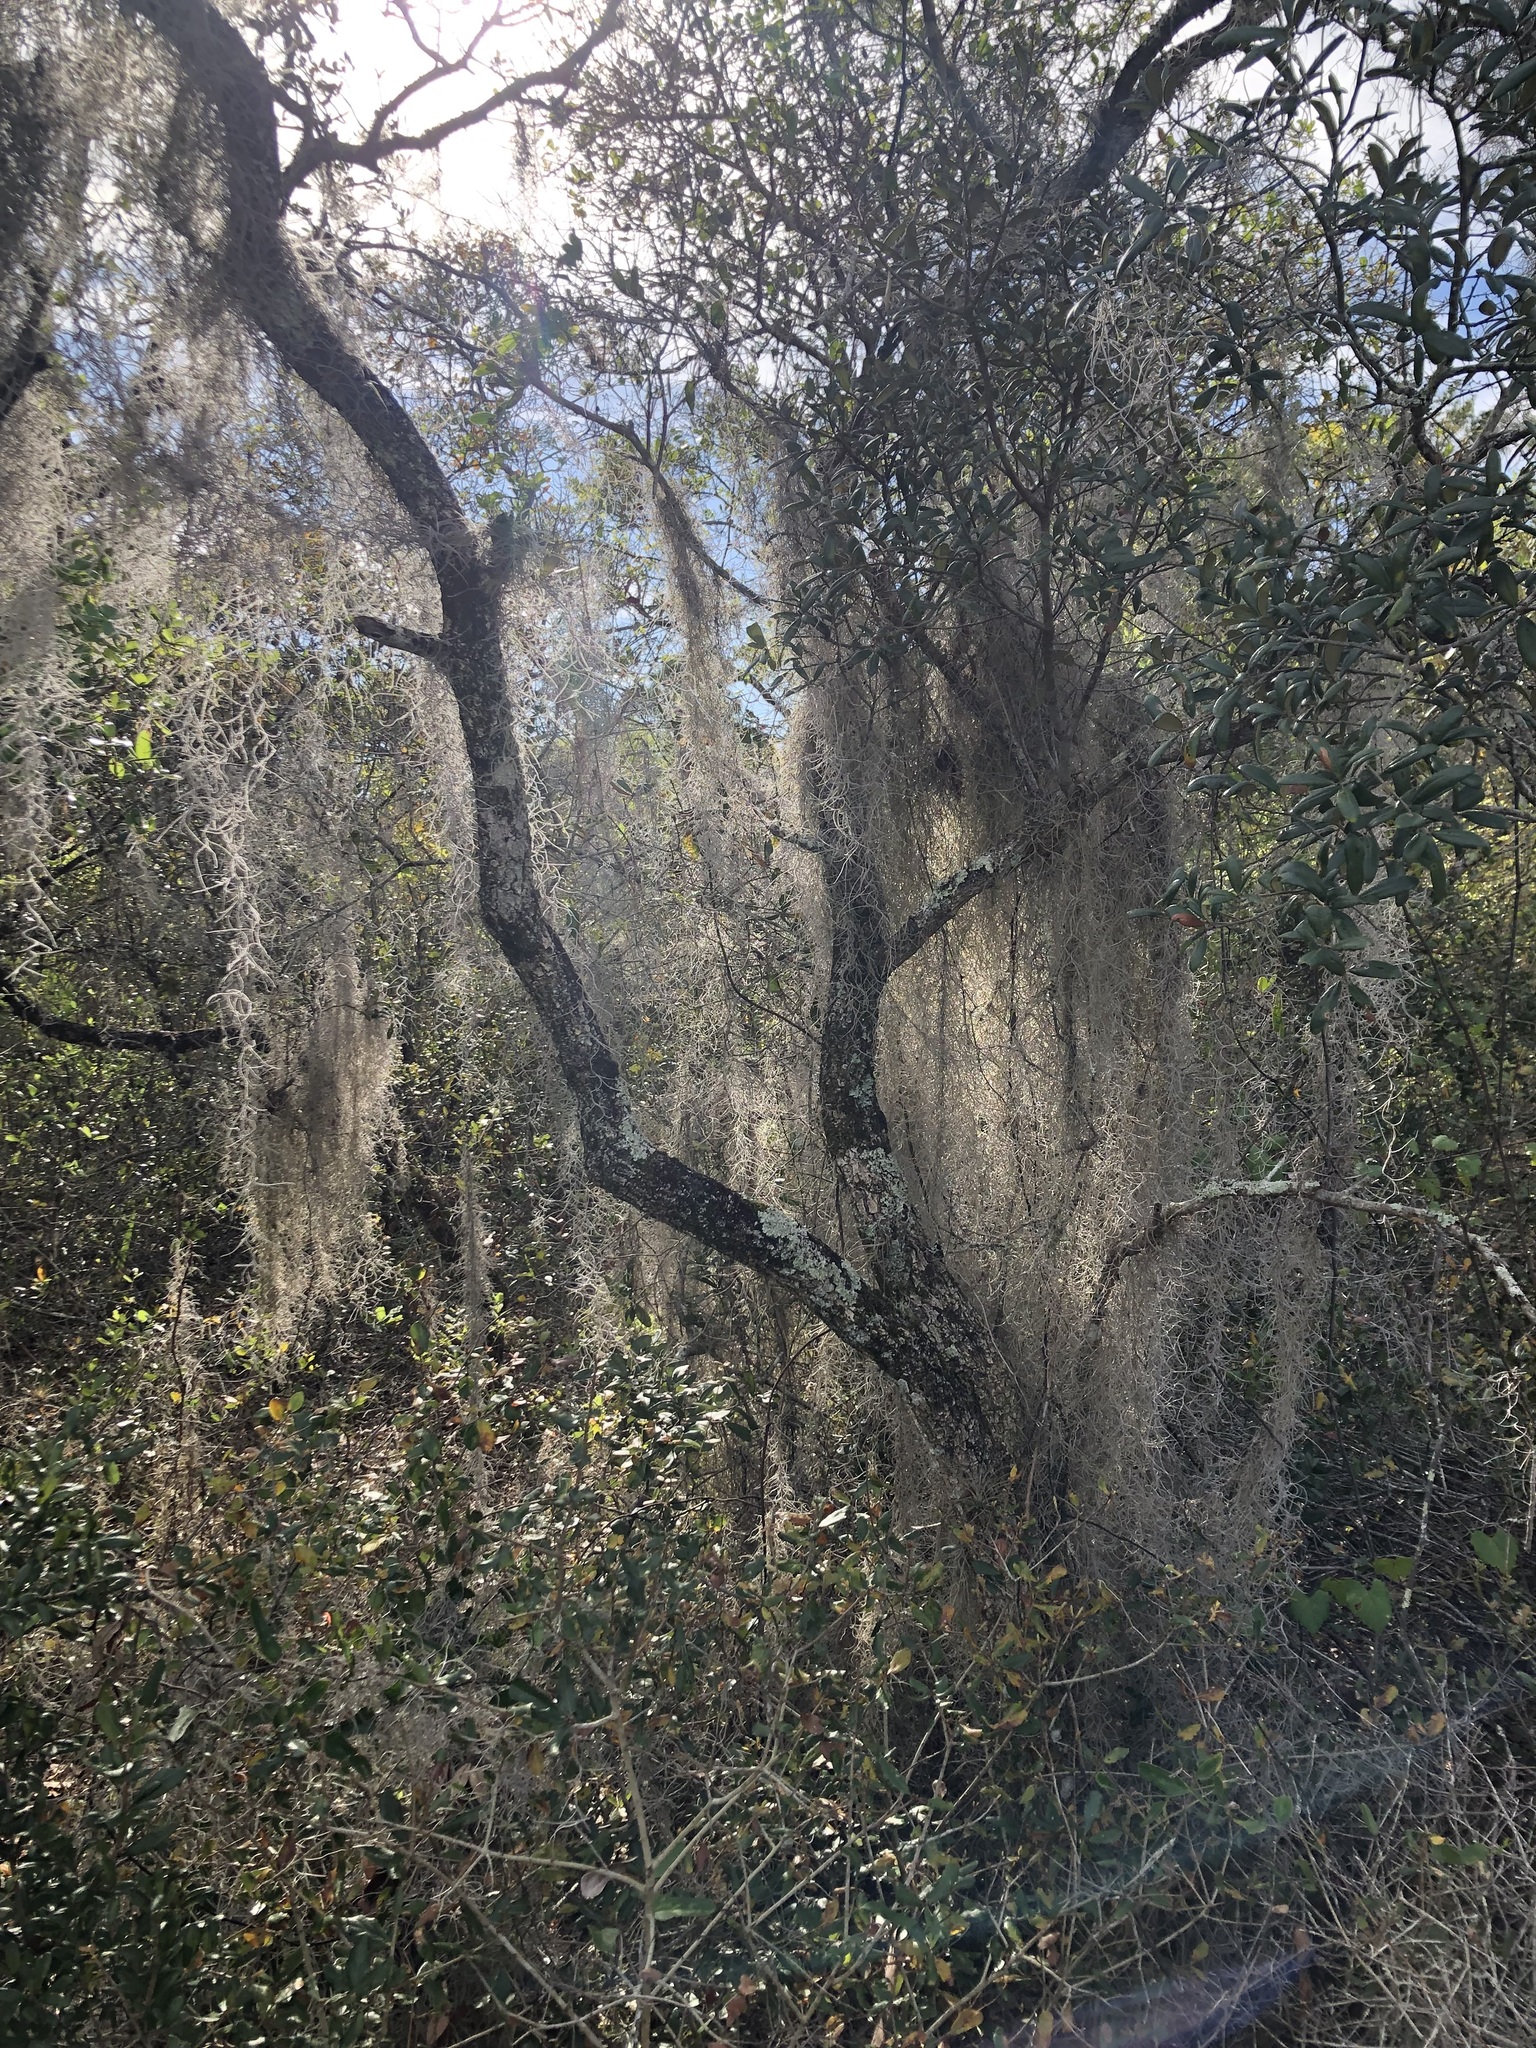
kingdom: Plantae
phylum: Tracheophyta
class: Liliopsida
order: Poales
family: Bromeliaceae
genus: Tillandsia
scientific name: Tillandsia usneoides
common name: Spanish moss
